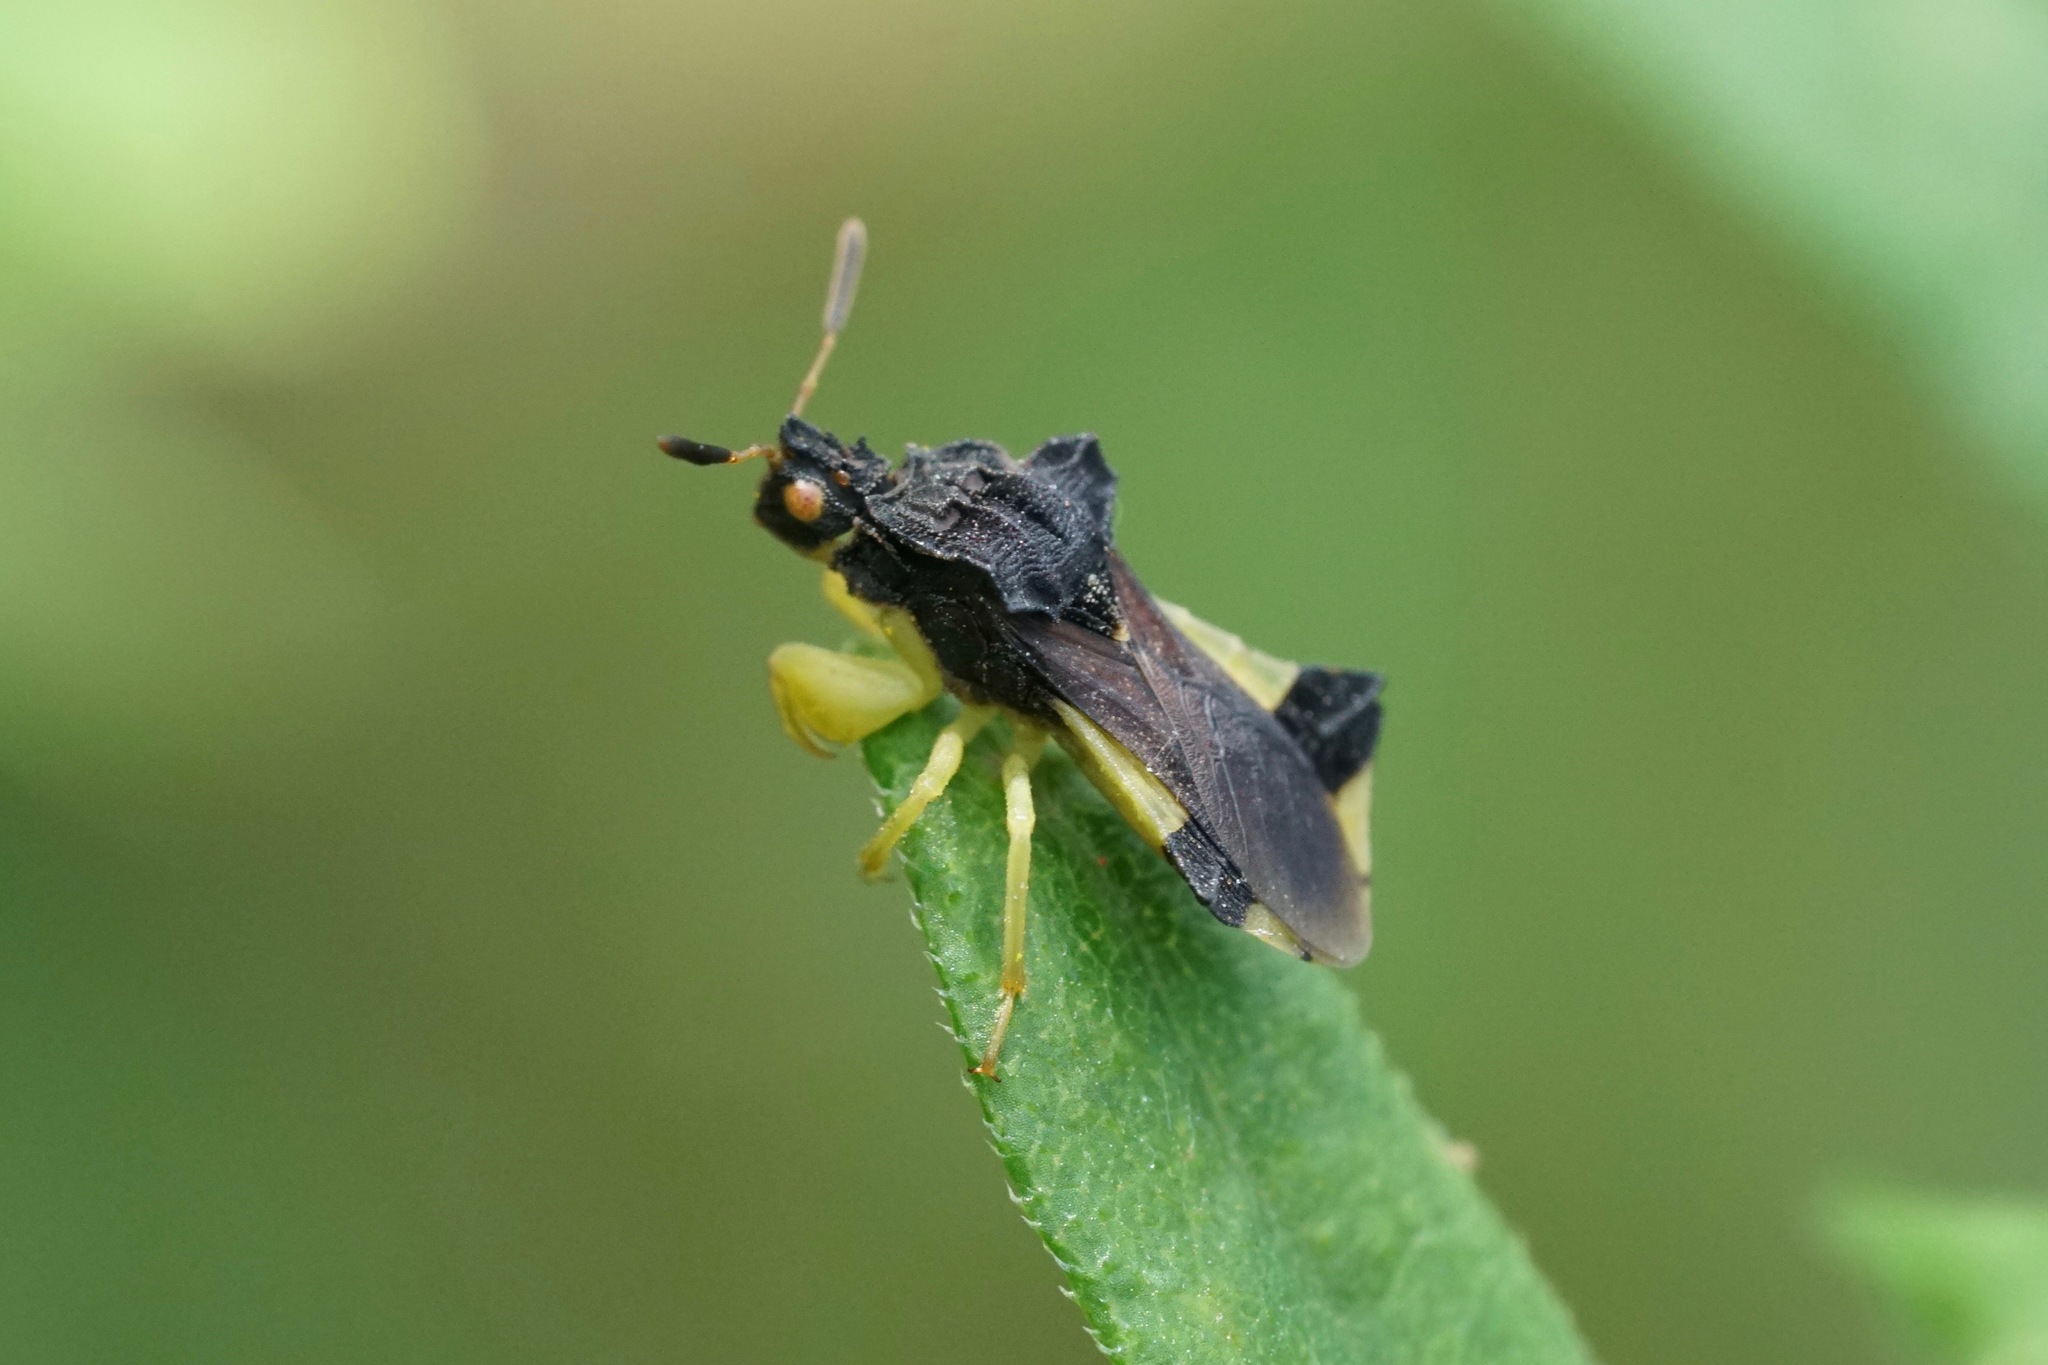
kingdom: Animalia
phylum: Arthropoda
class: Insecta
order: Hemiptera
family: Reduviidae
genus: Phymata
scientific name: Phymata pennsylvanica
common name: Pennsylvania ambush bug
